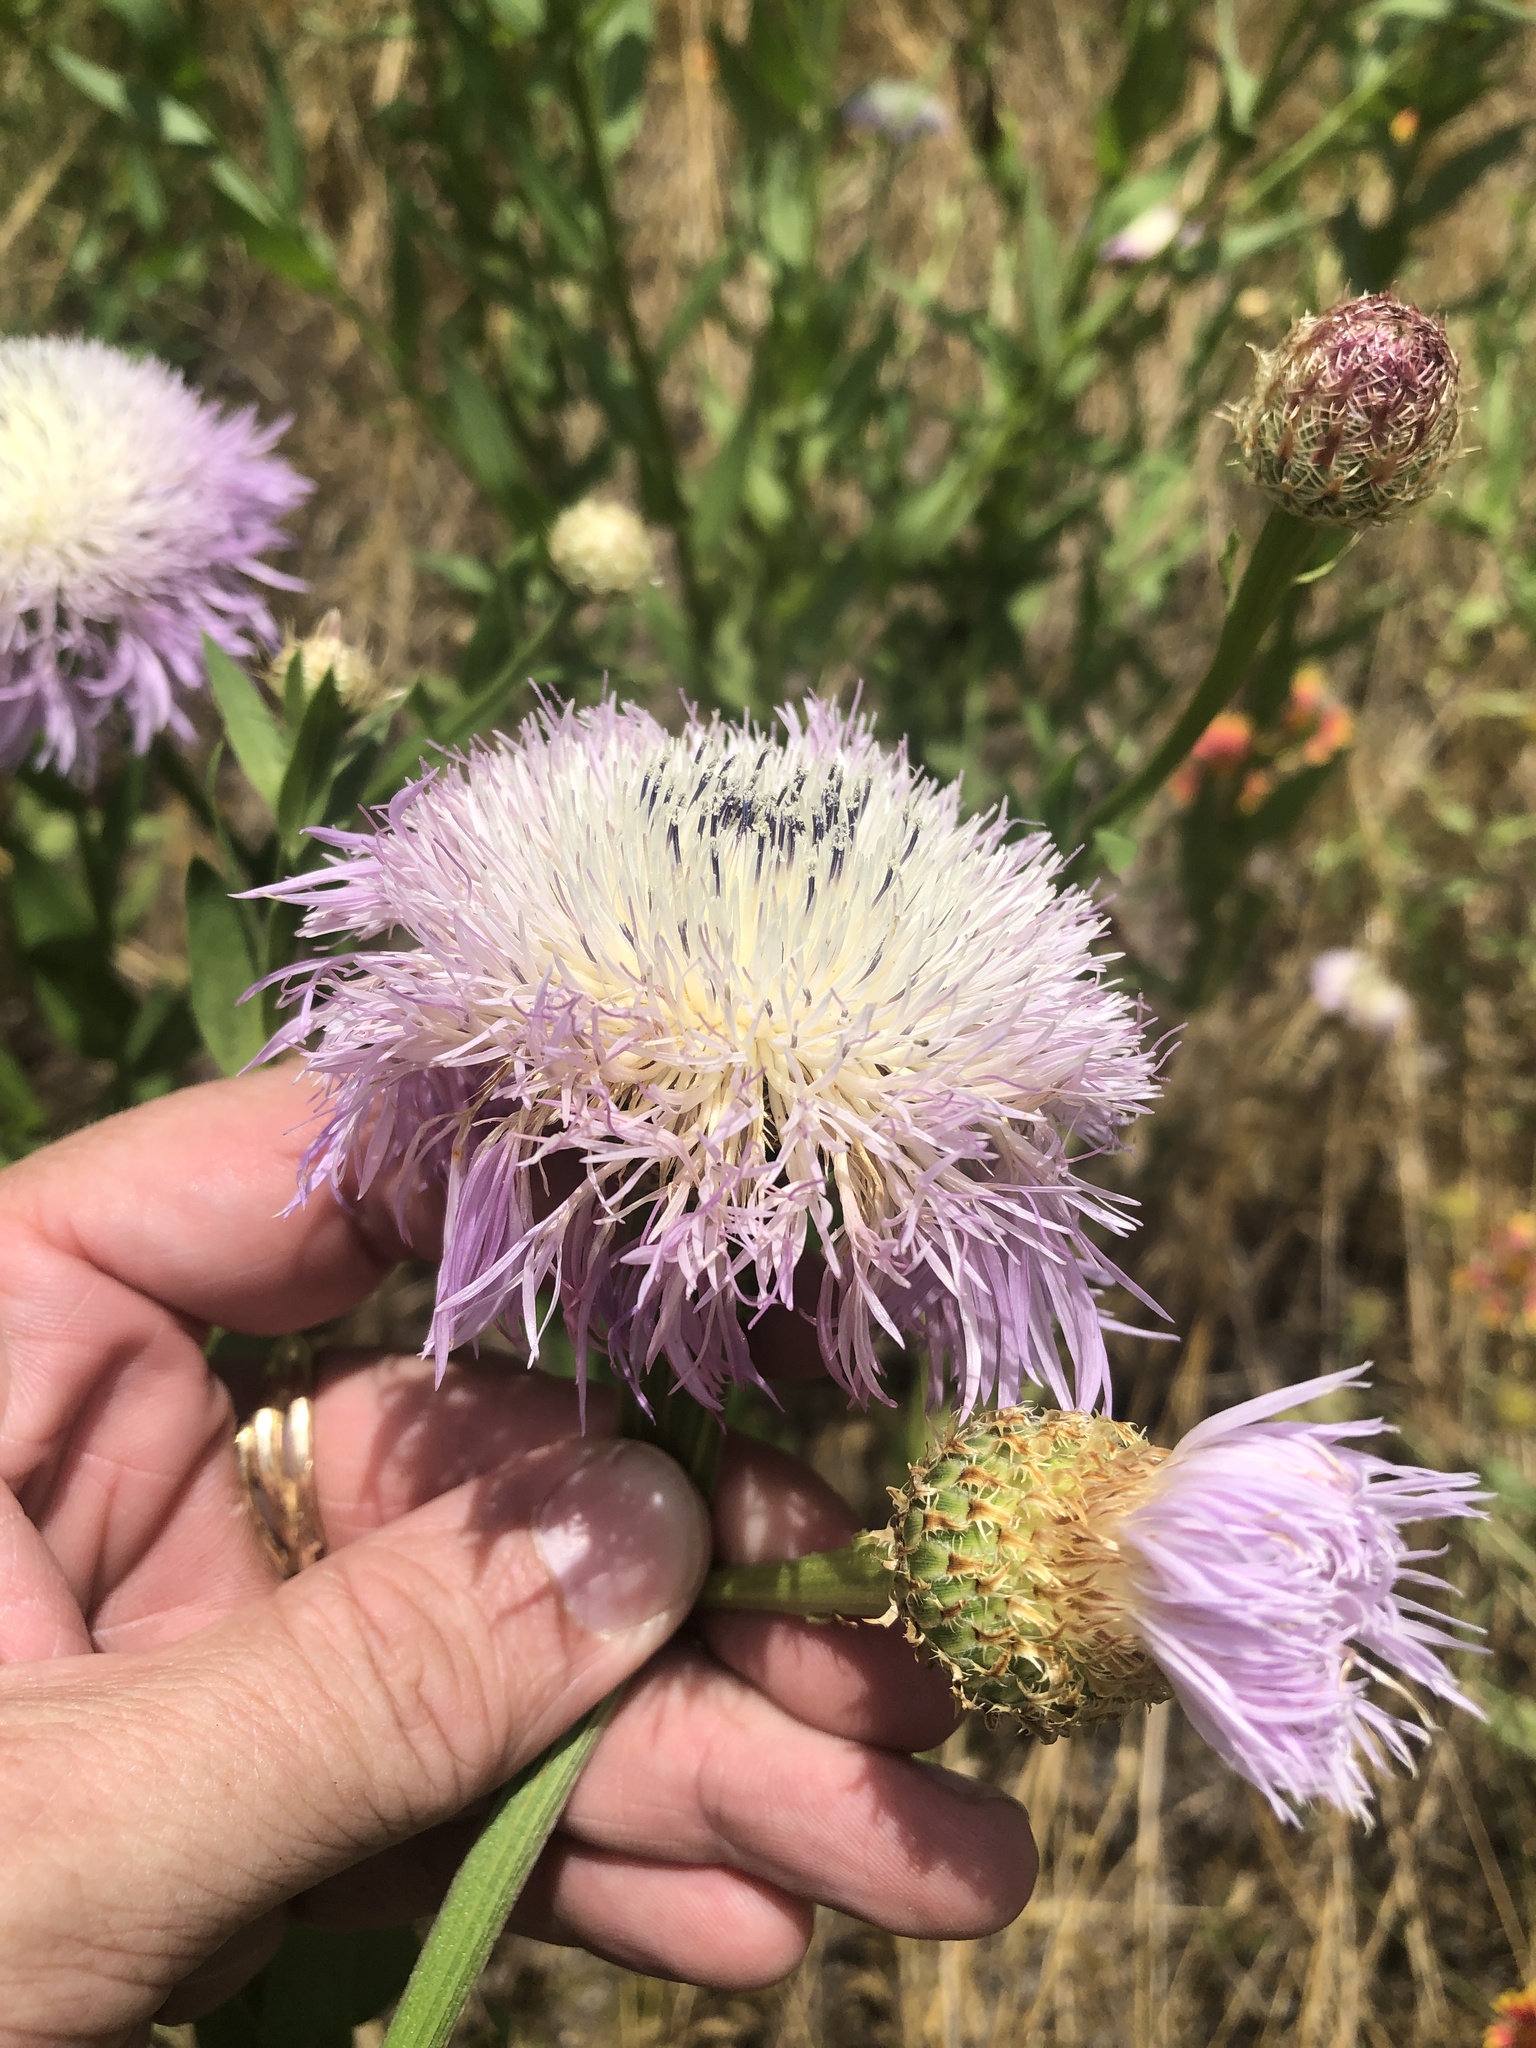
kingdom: Plantae
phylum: Tracheophyta
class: Magnoliopsida
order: Asterales
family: Asteraceae
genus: Plectocephalus
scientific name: Plectocephalus americanus
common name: American basket-flower
